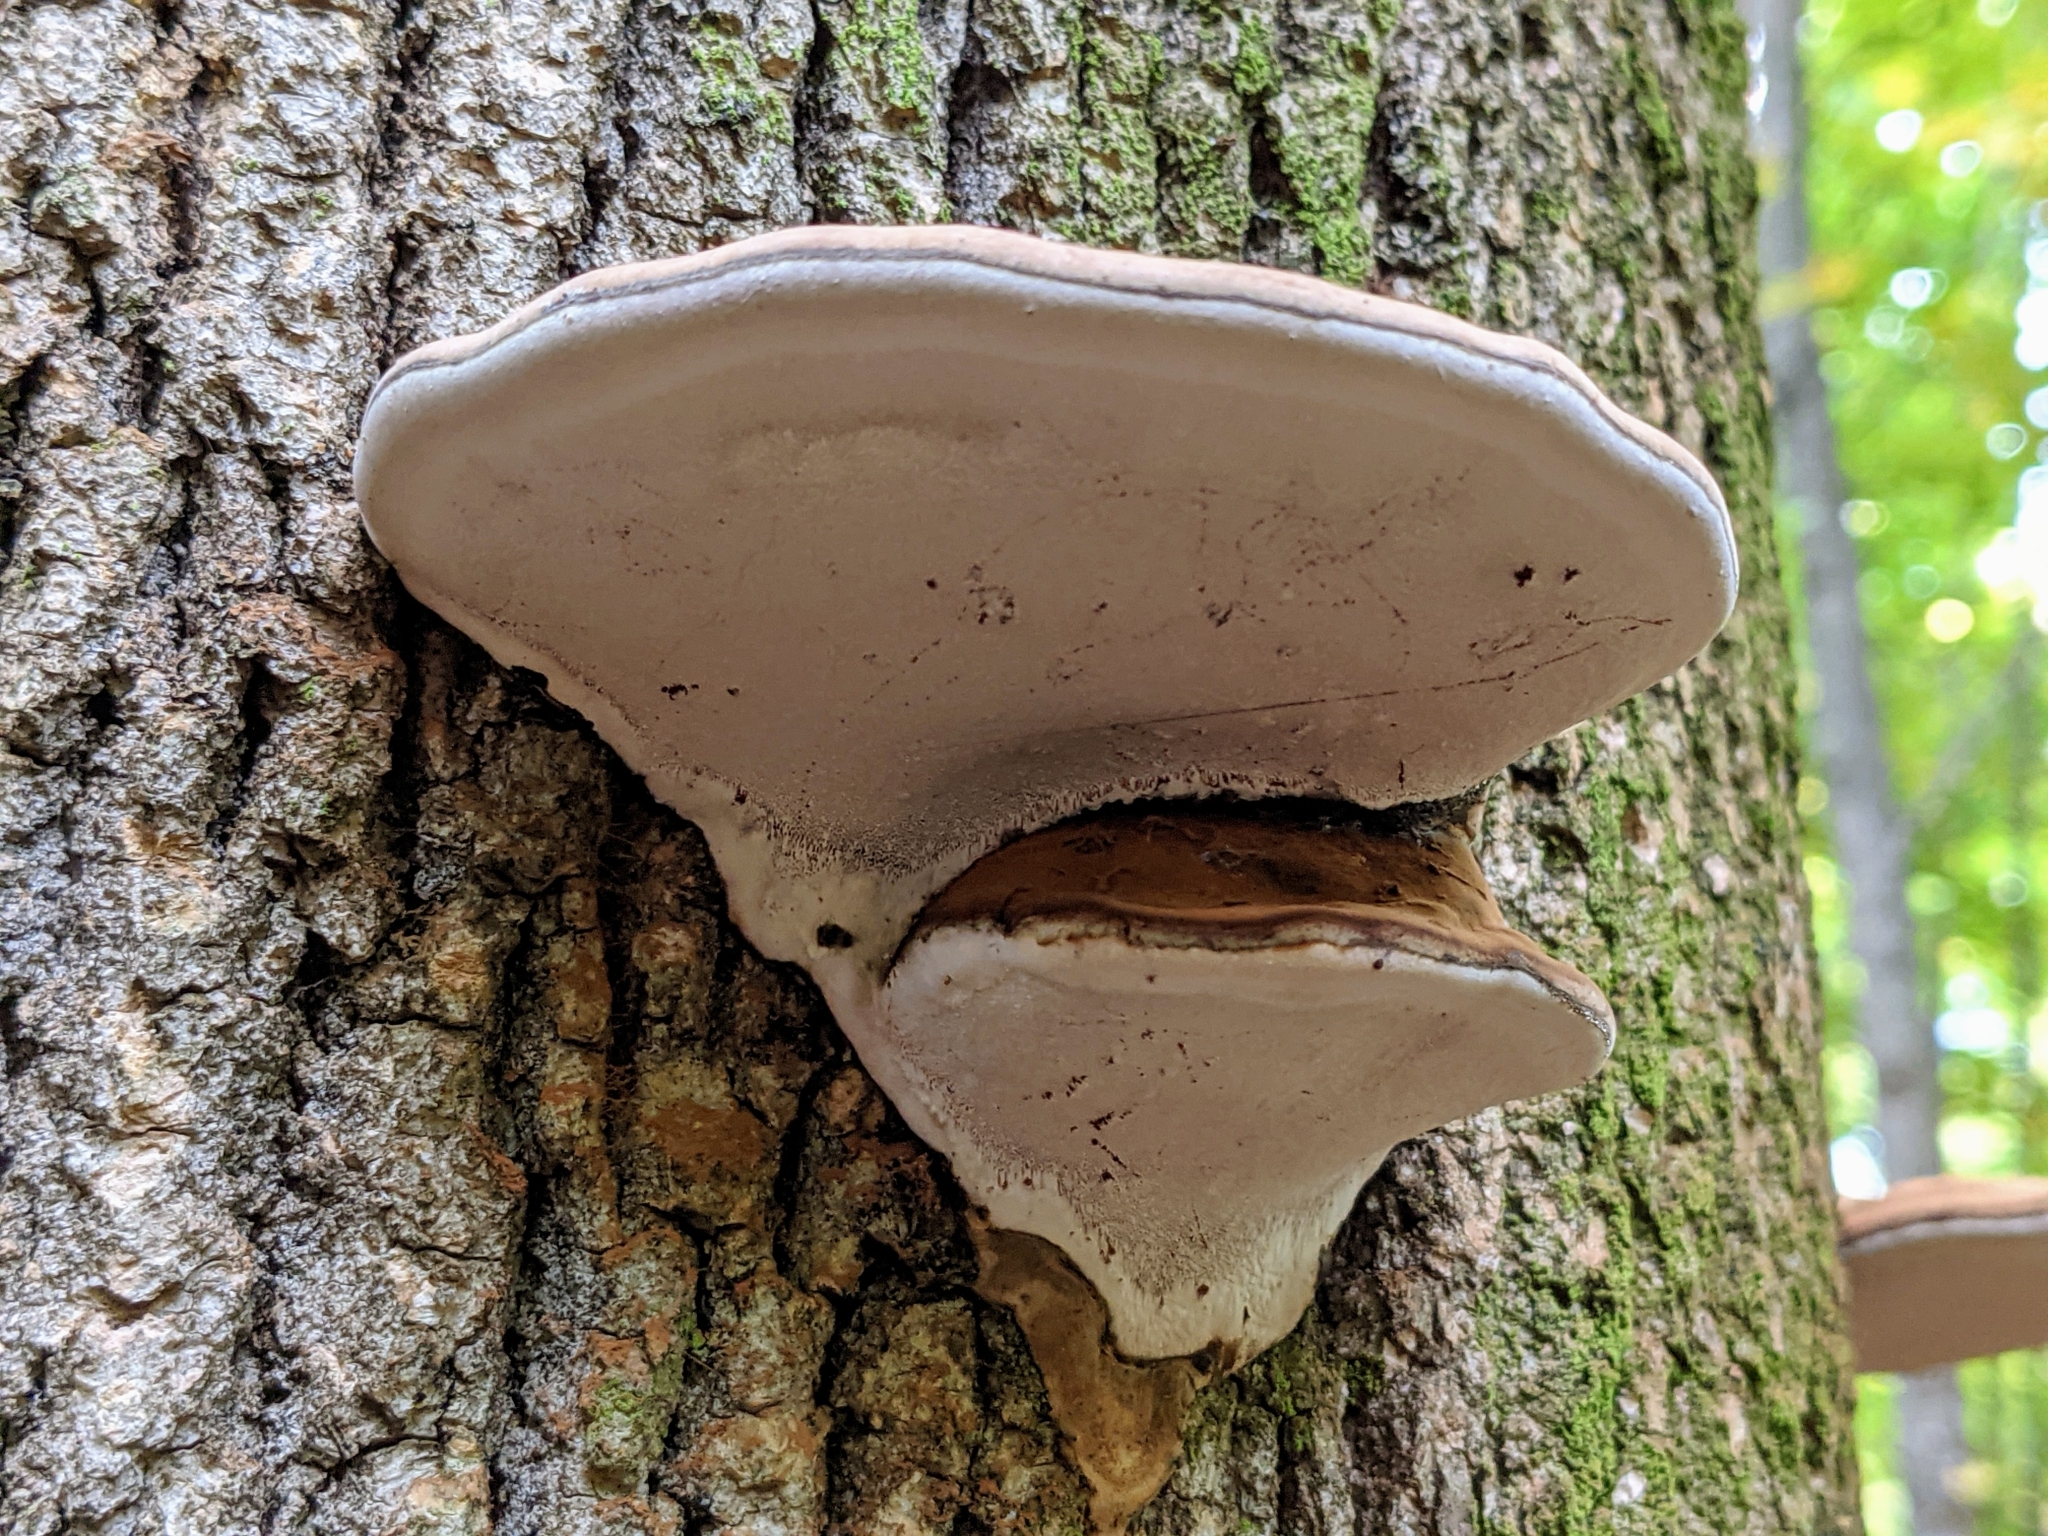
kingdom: Fungi
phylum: Basidiomycota
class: Agaricomycetes
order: Polyporales
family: Polyporaceae
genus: Ganoderma
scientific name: Ganoderma applanatum
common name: Artist's bracket
